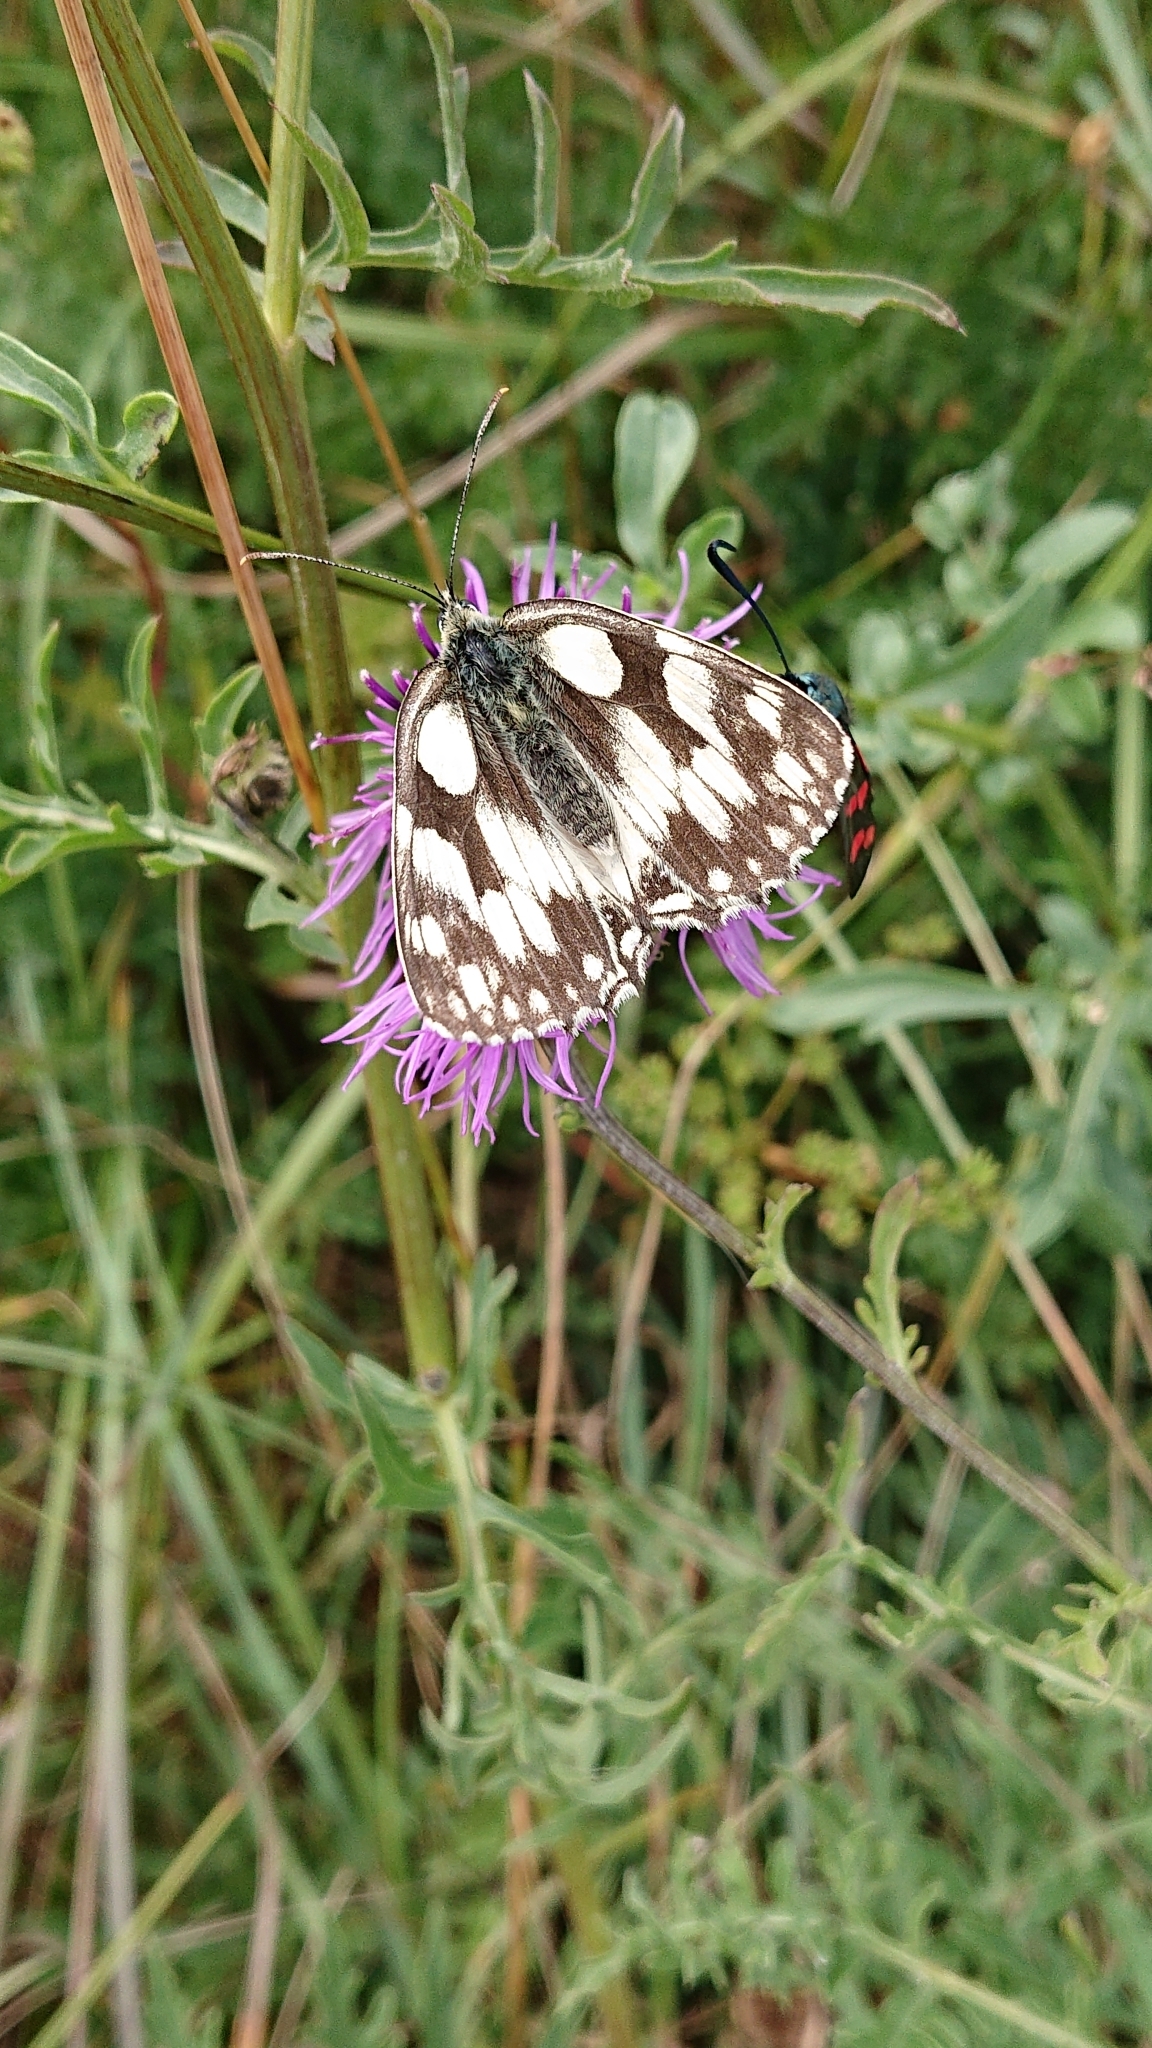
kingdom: Animalia
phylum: Arthropoda
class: Insecta
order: Lepidoptera
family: Nymphalidae
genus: Melanargia
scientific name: Melanargia galathea
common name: Marbled white
